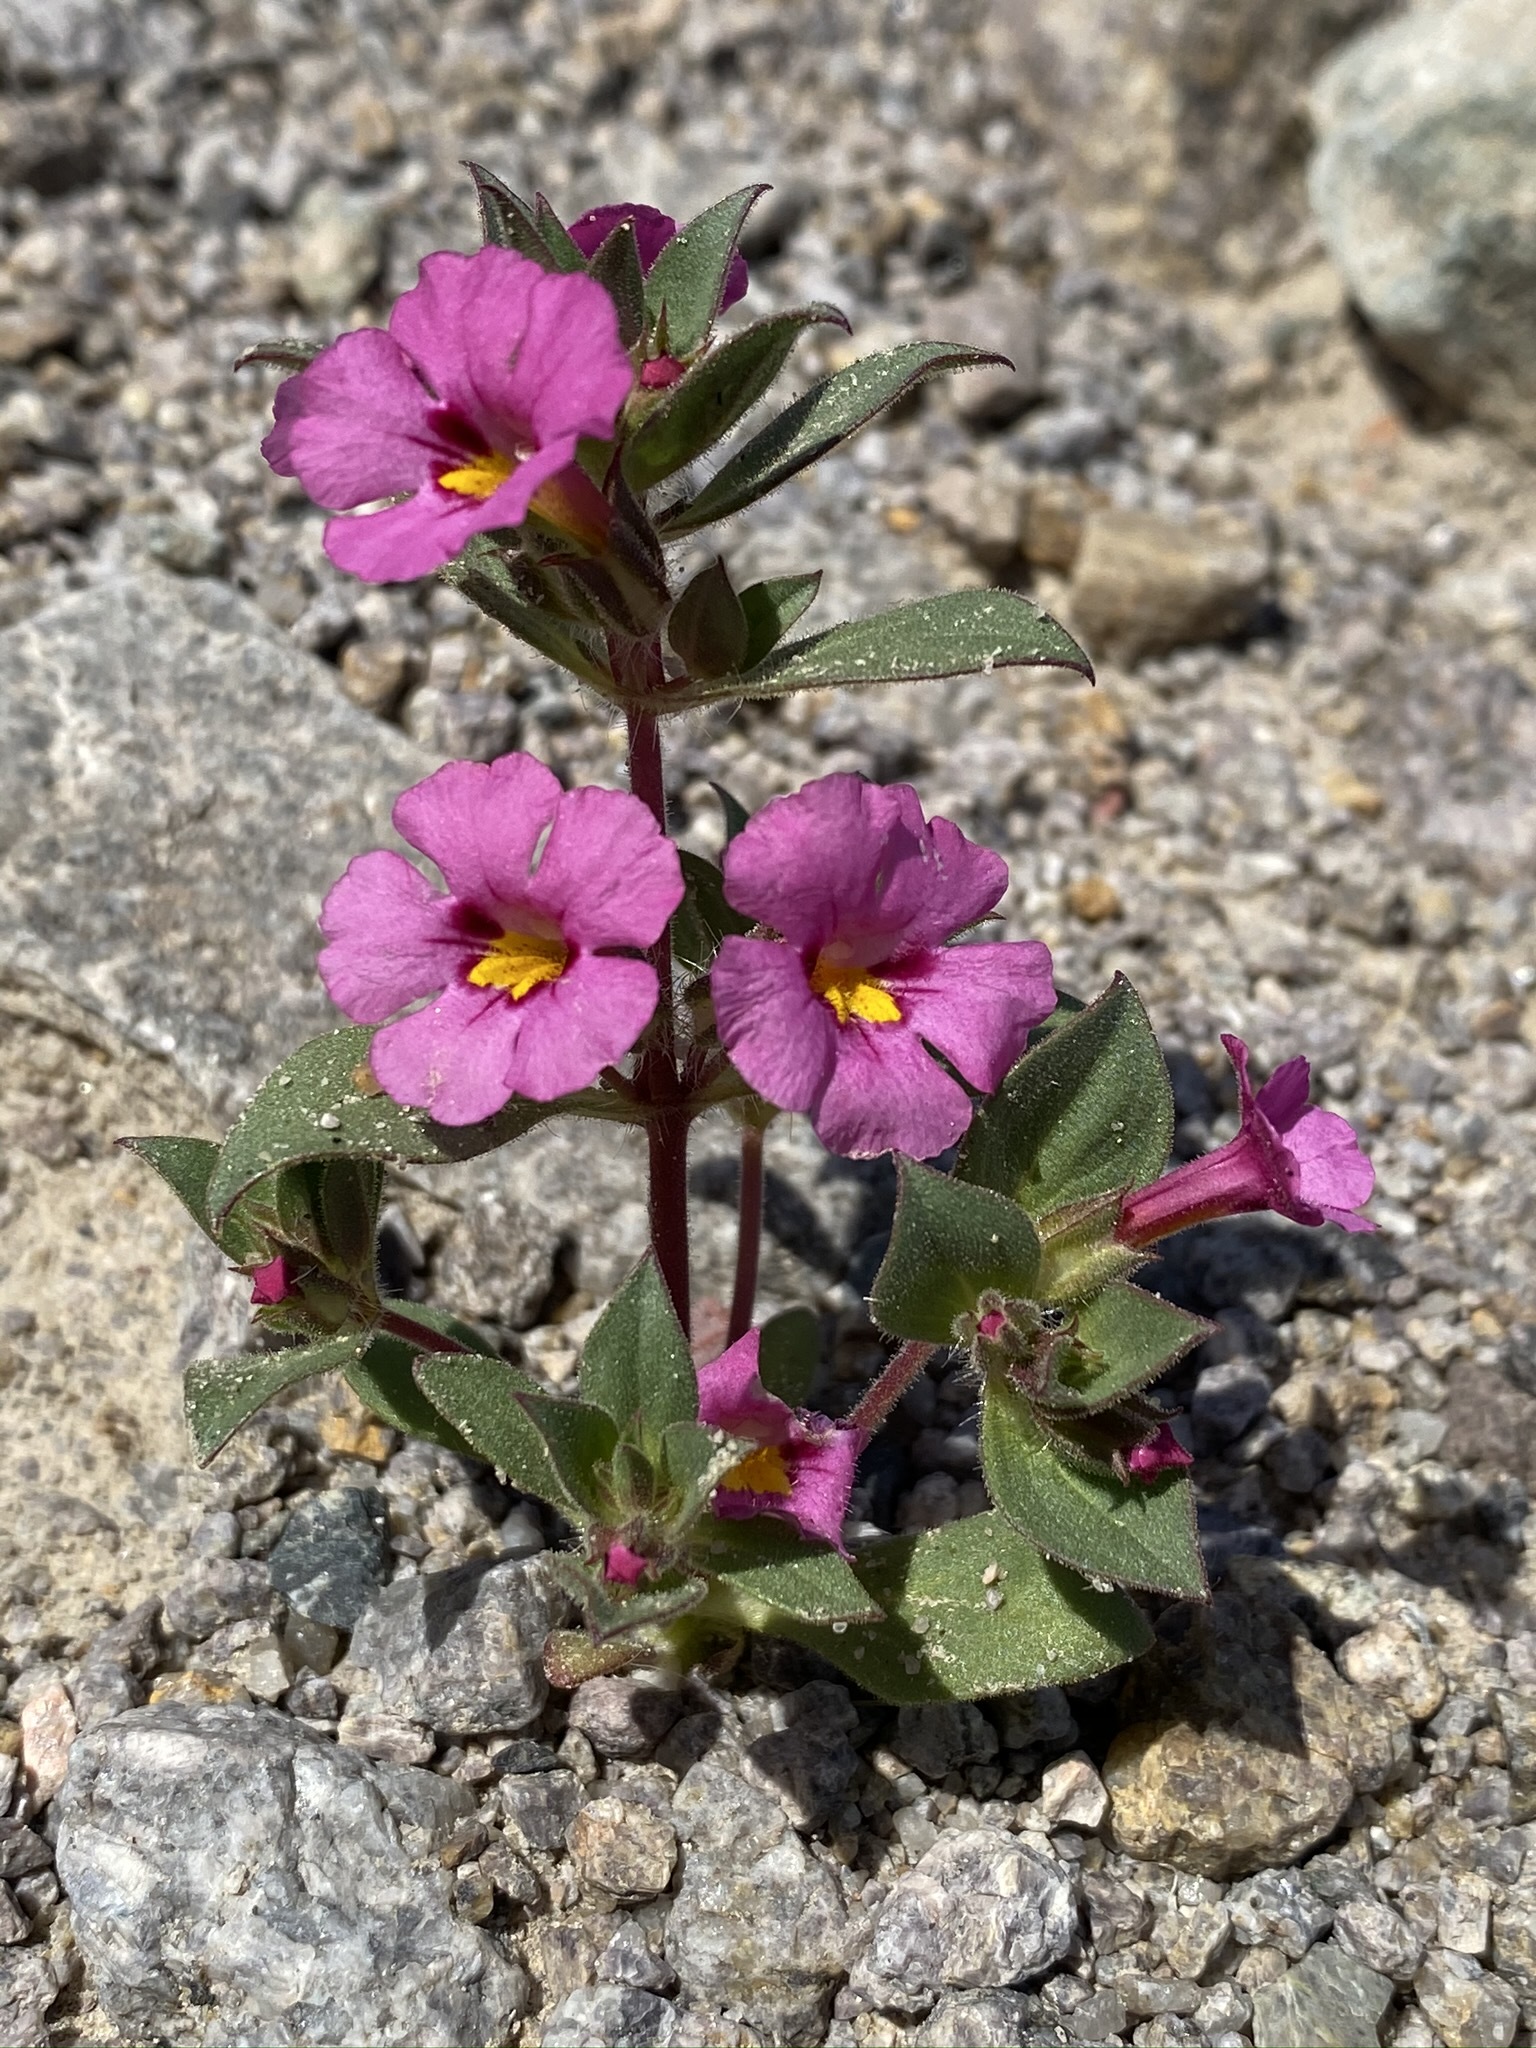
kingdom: Plantae
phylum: Tracheophyta
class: Magnoliopsida
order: Lamiales
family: Phrymaceae
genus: Diplacus
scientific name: Diplacus bigelovii
